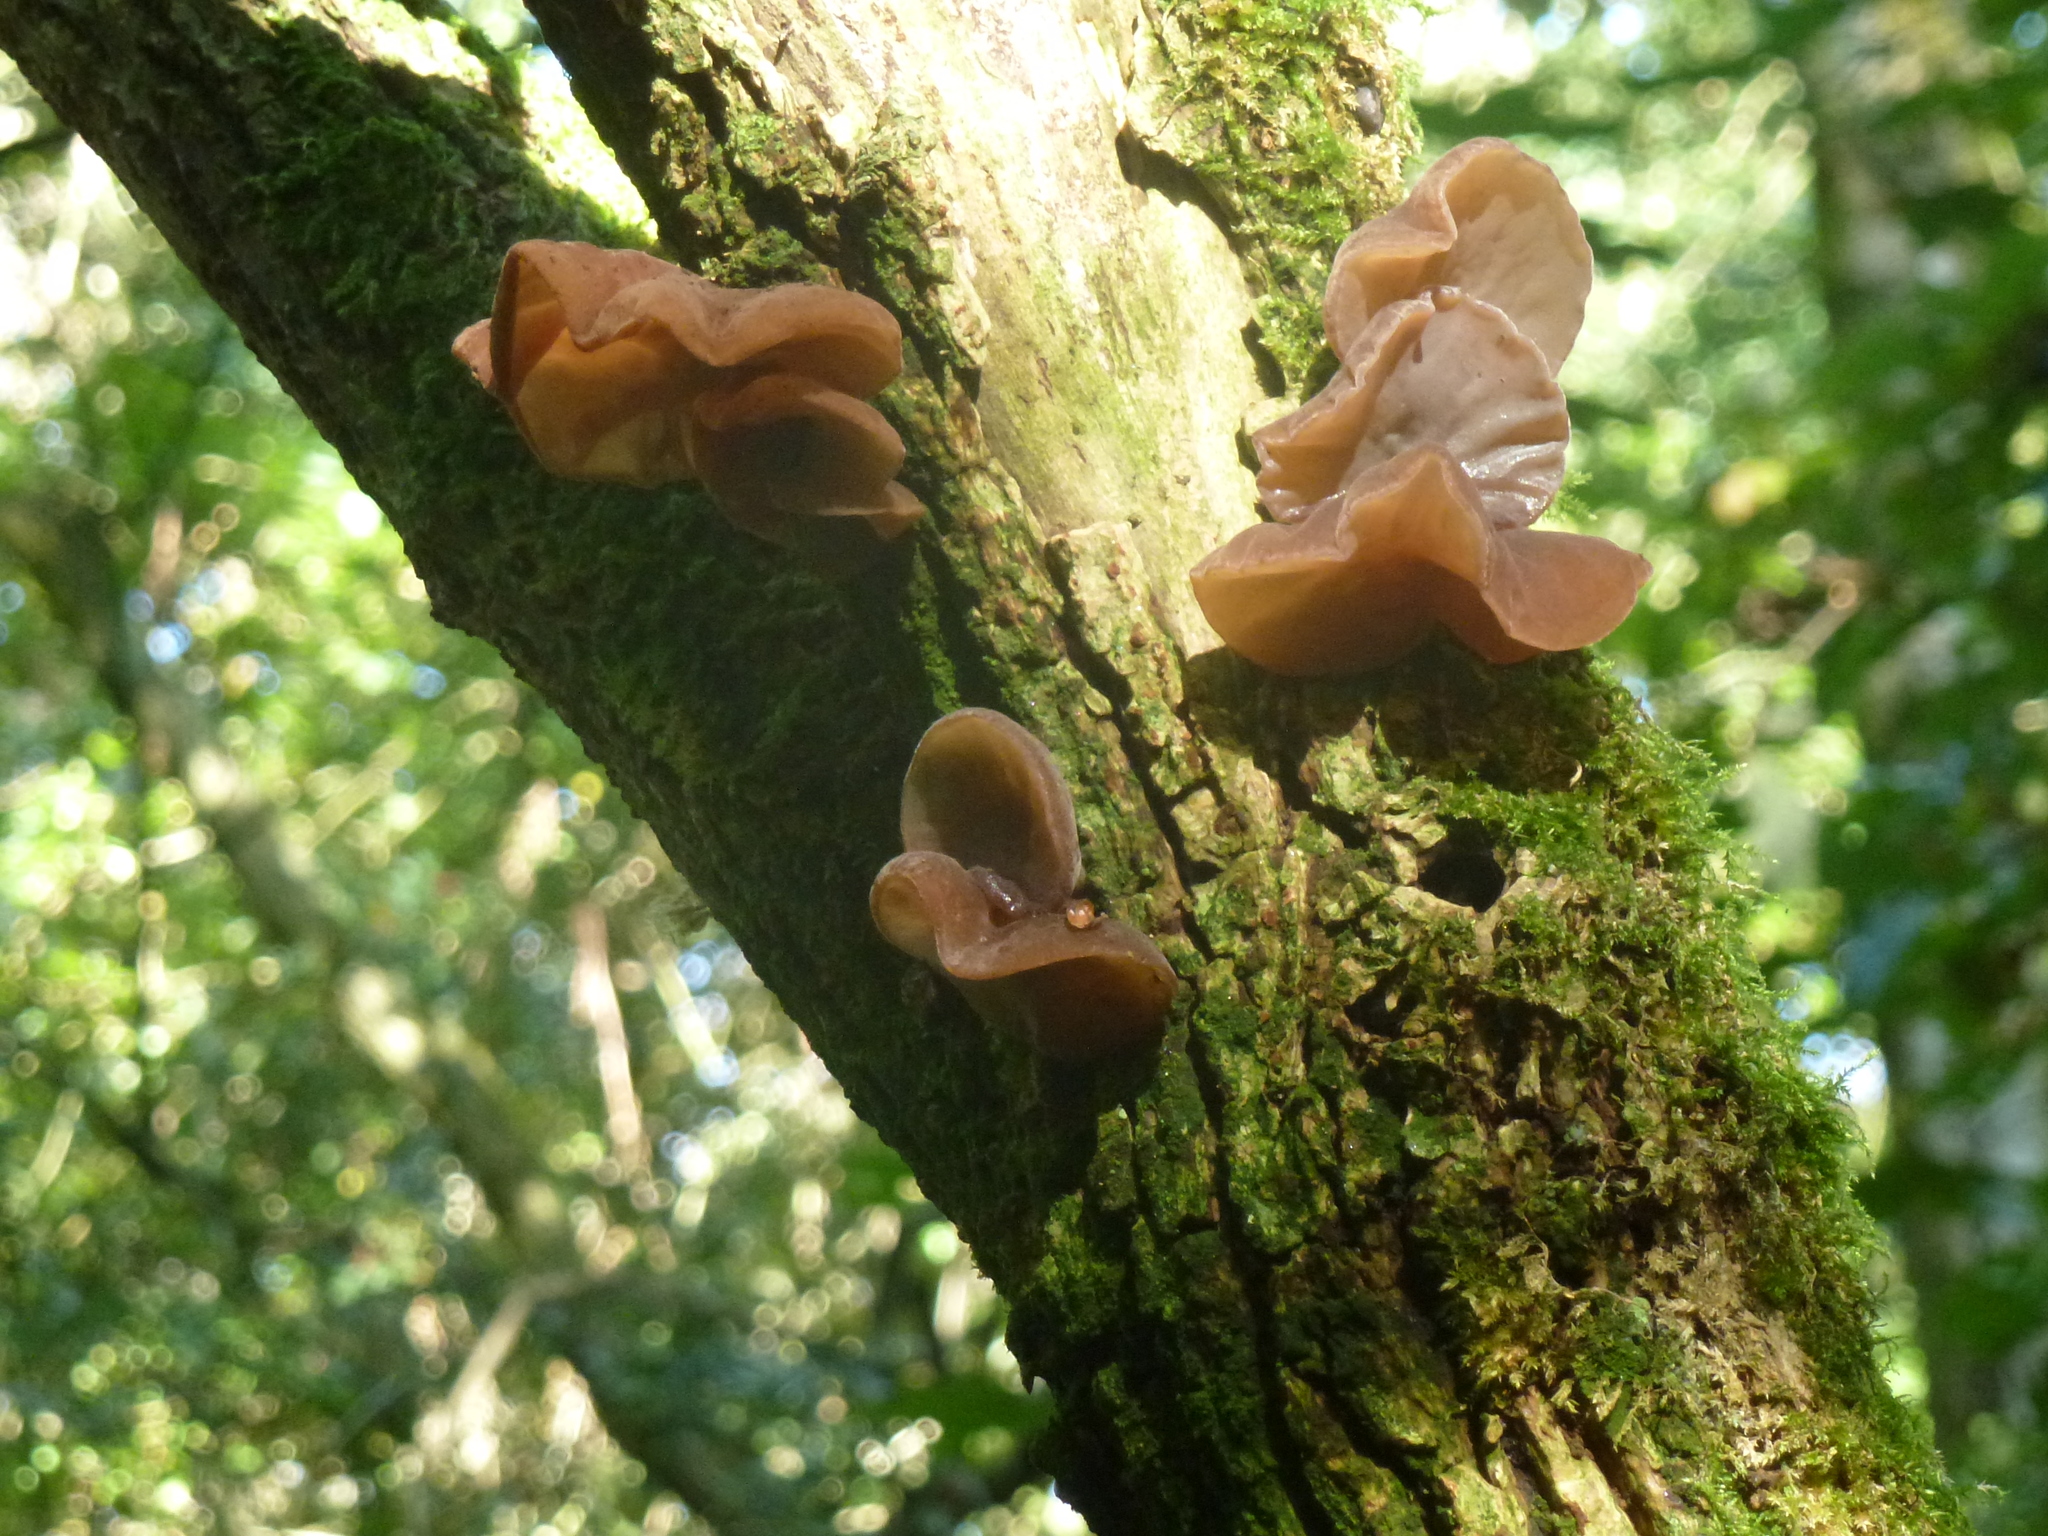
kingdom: Fungi
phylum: Basidiomycota
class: Agaricomycetes
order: Auriculariales
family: Auriculariaceae
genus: Auricularia
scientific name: Auricularia auricula-judae
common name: Jelly ear
